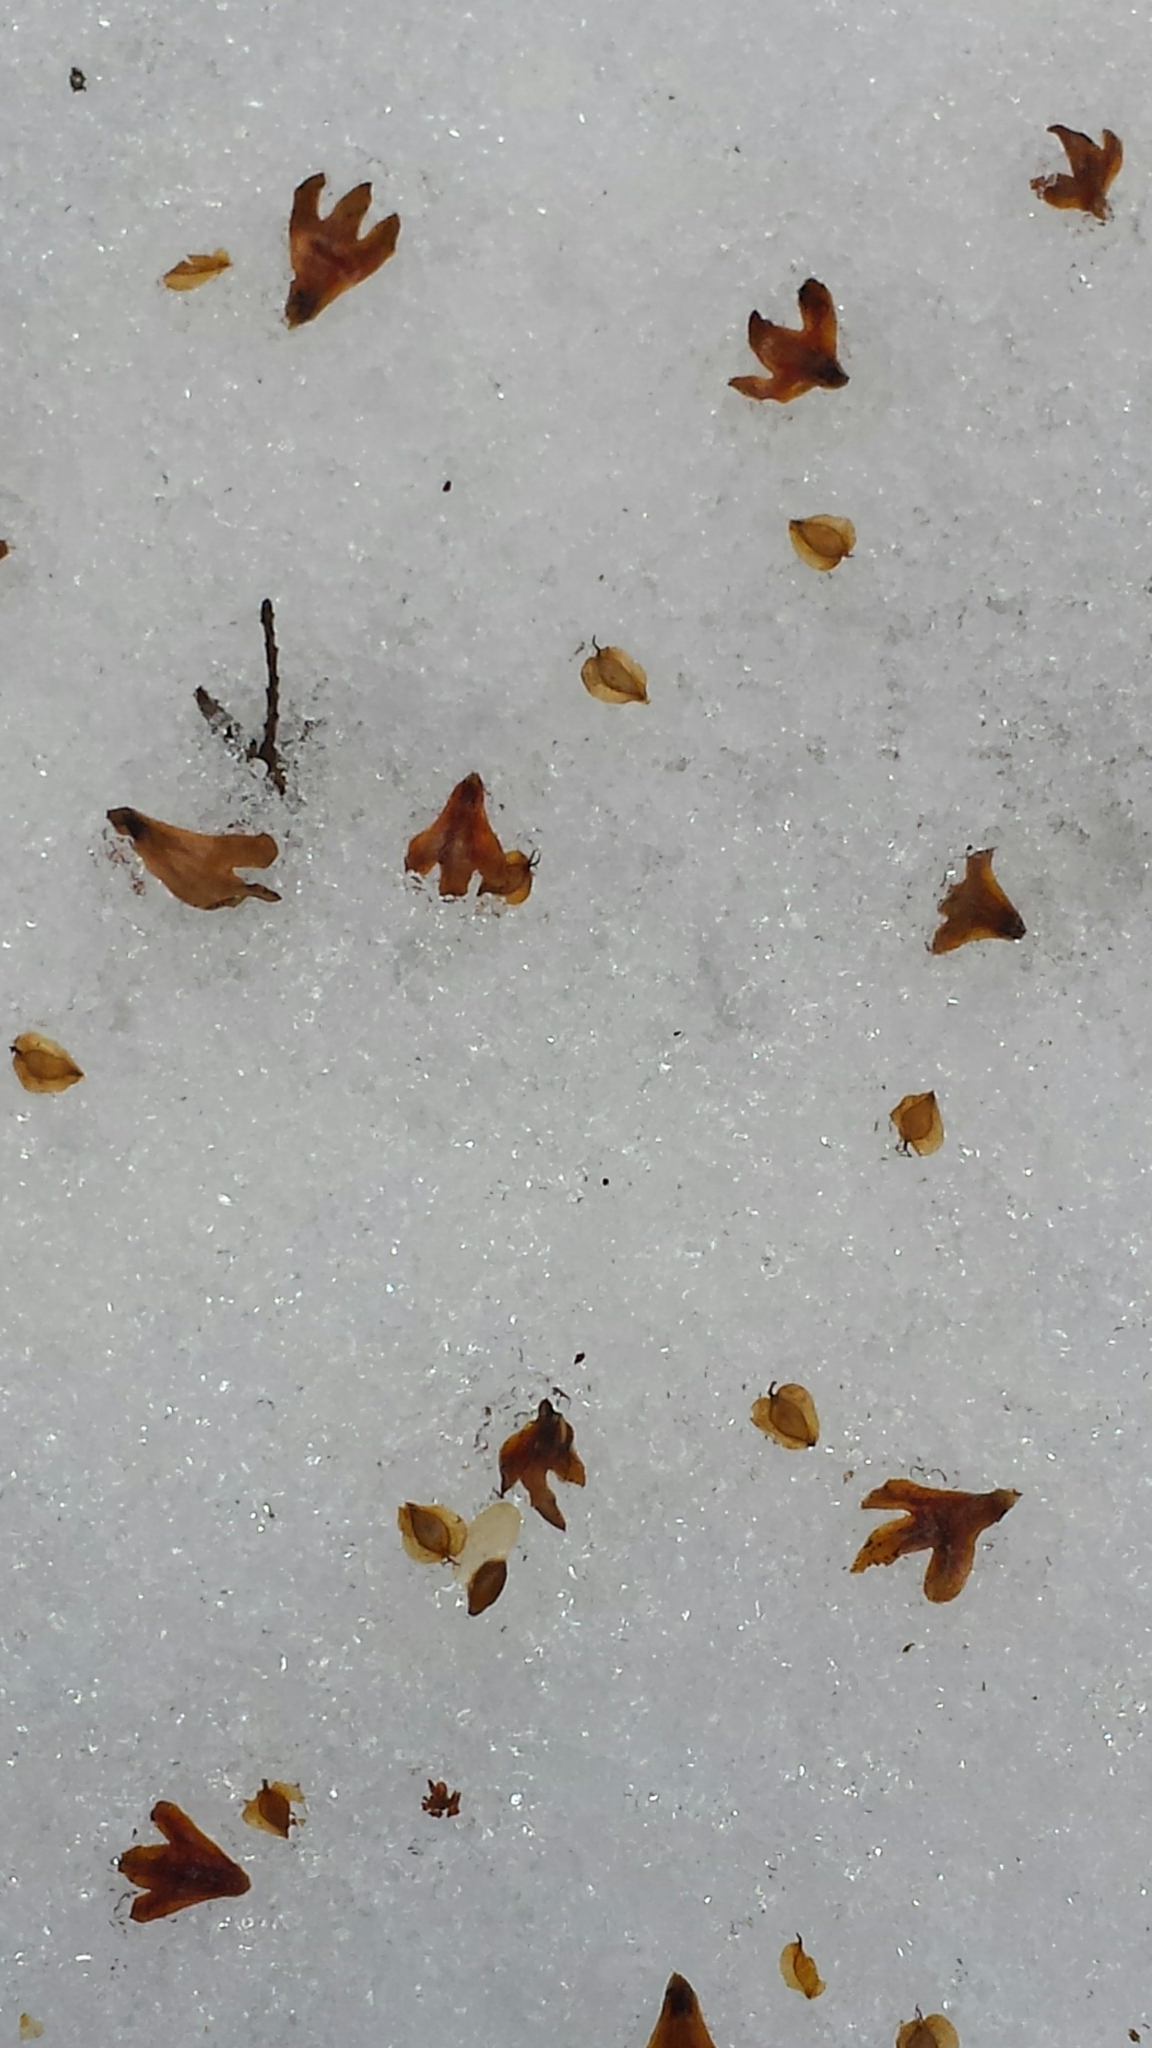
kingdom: Plantae
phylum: Tracheophyta
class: Magnoliopsida
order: Fagales
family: Betulaceae
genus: Betula
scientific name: Betula alleghaniensis
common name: Yellow birch
